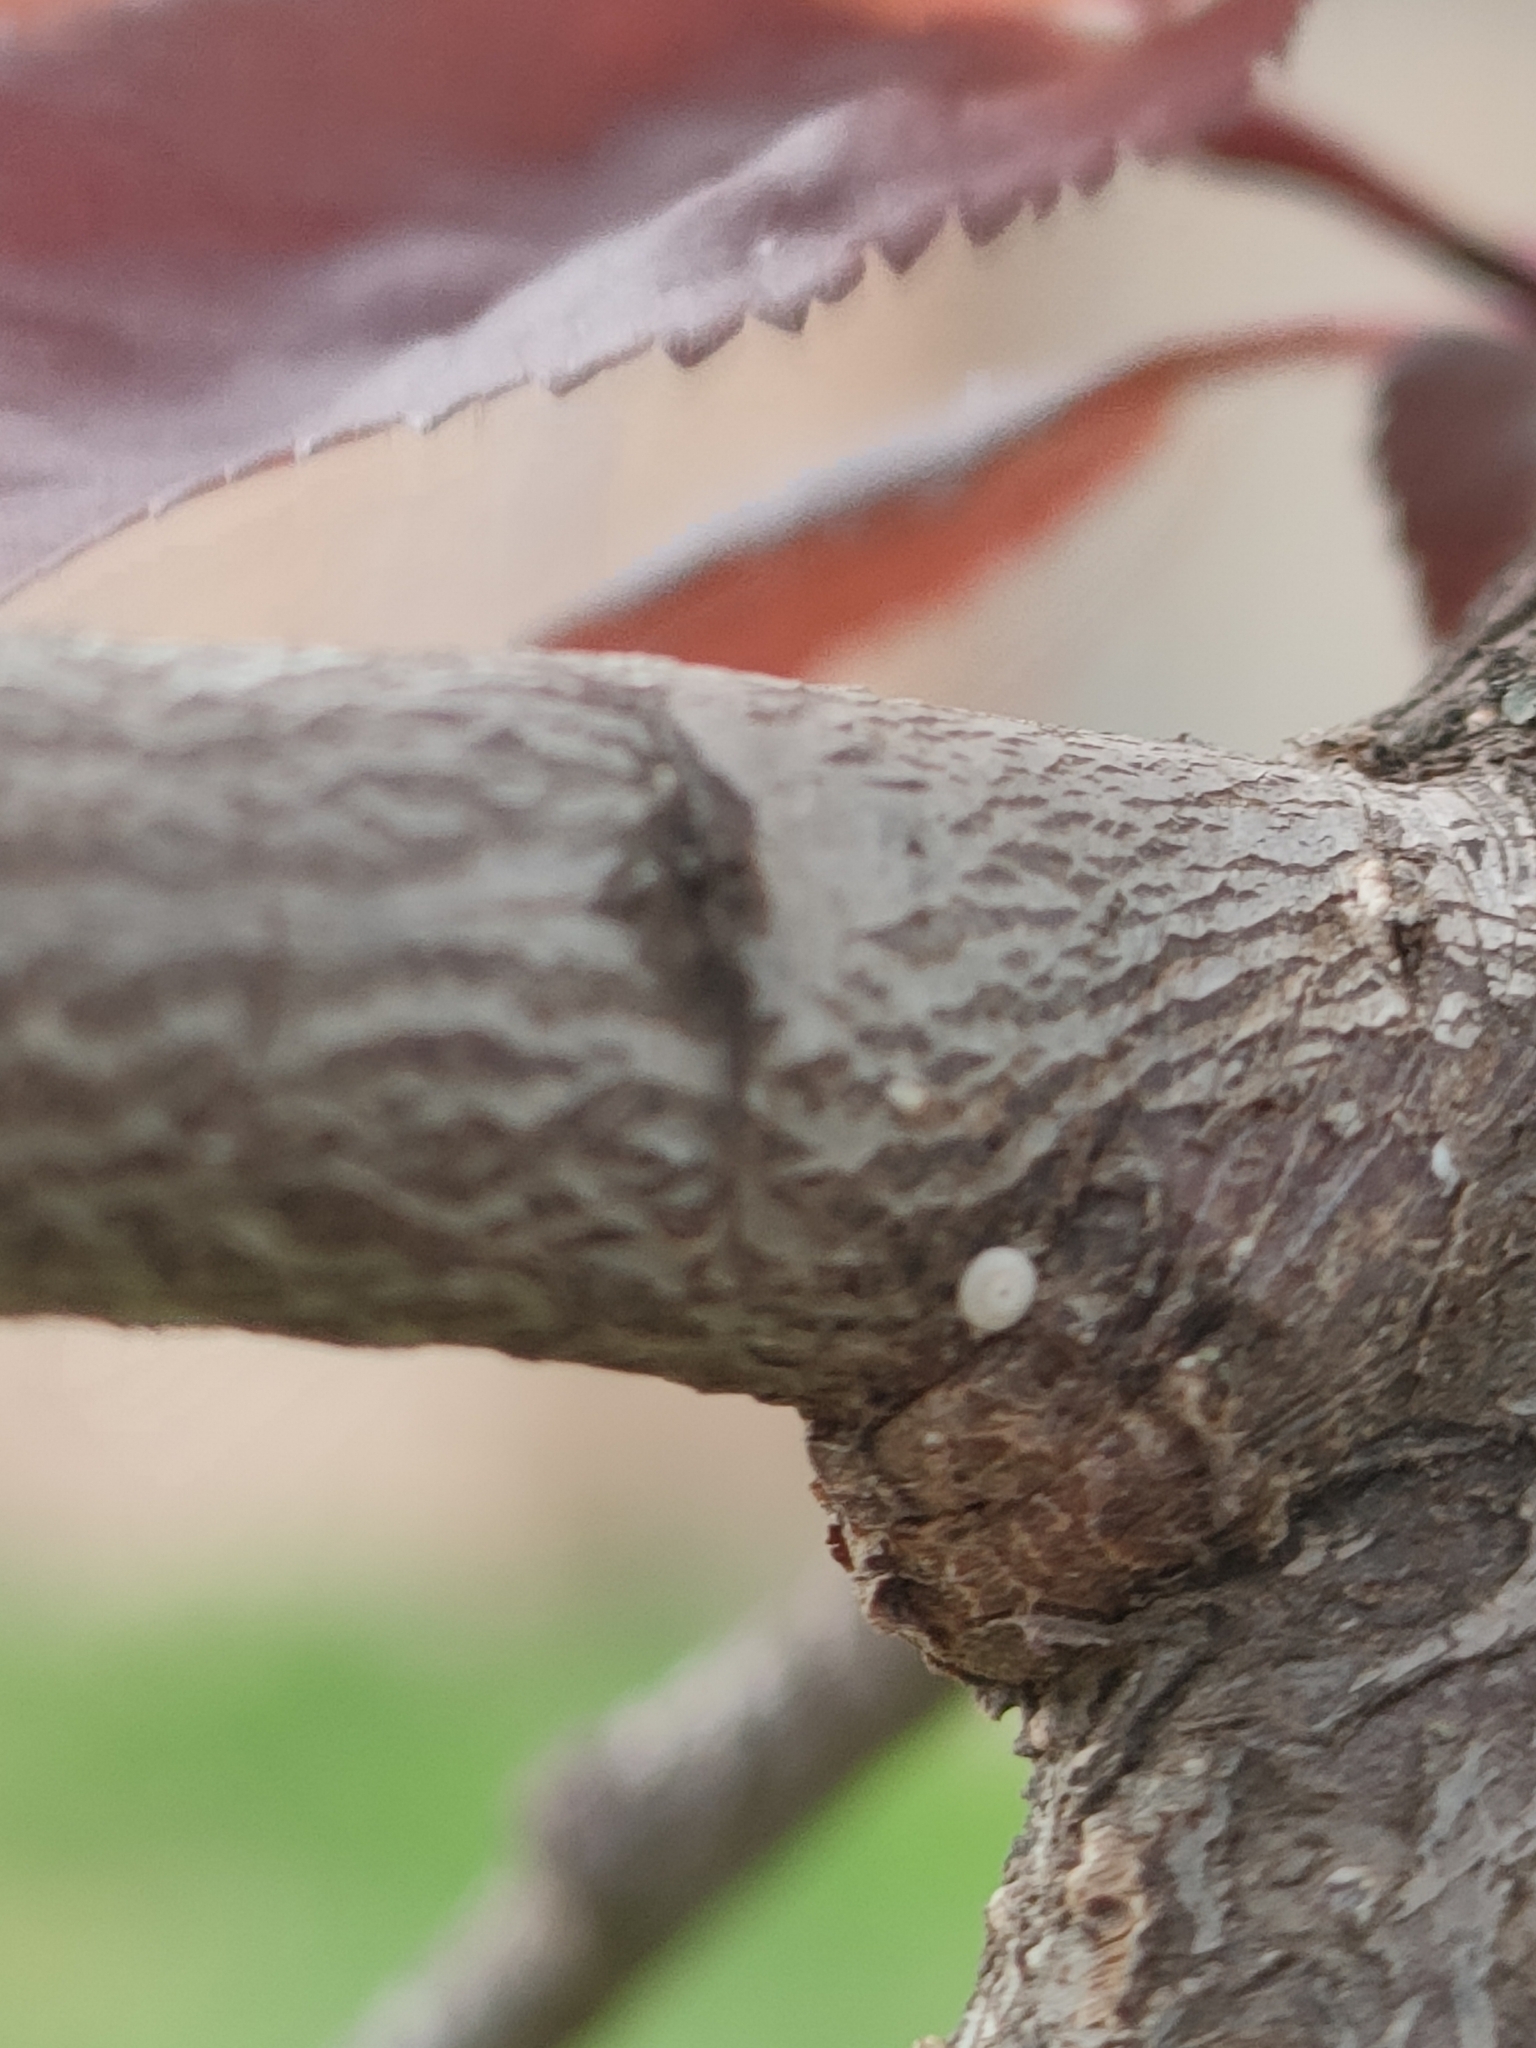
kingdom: Animalia
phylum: Arthropoda
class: Insecta
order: Lepidoptera
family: Lycaenidae
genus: Thecla
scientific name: Thecla betulae
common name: Brown hairstreak
